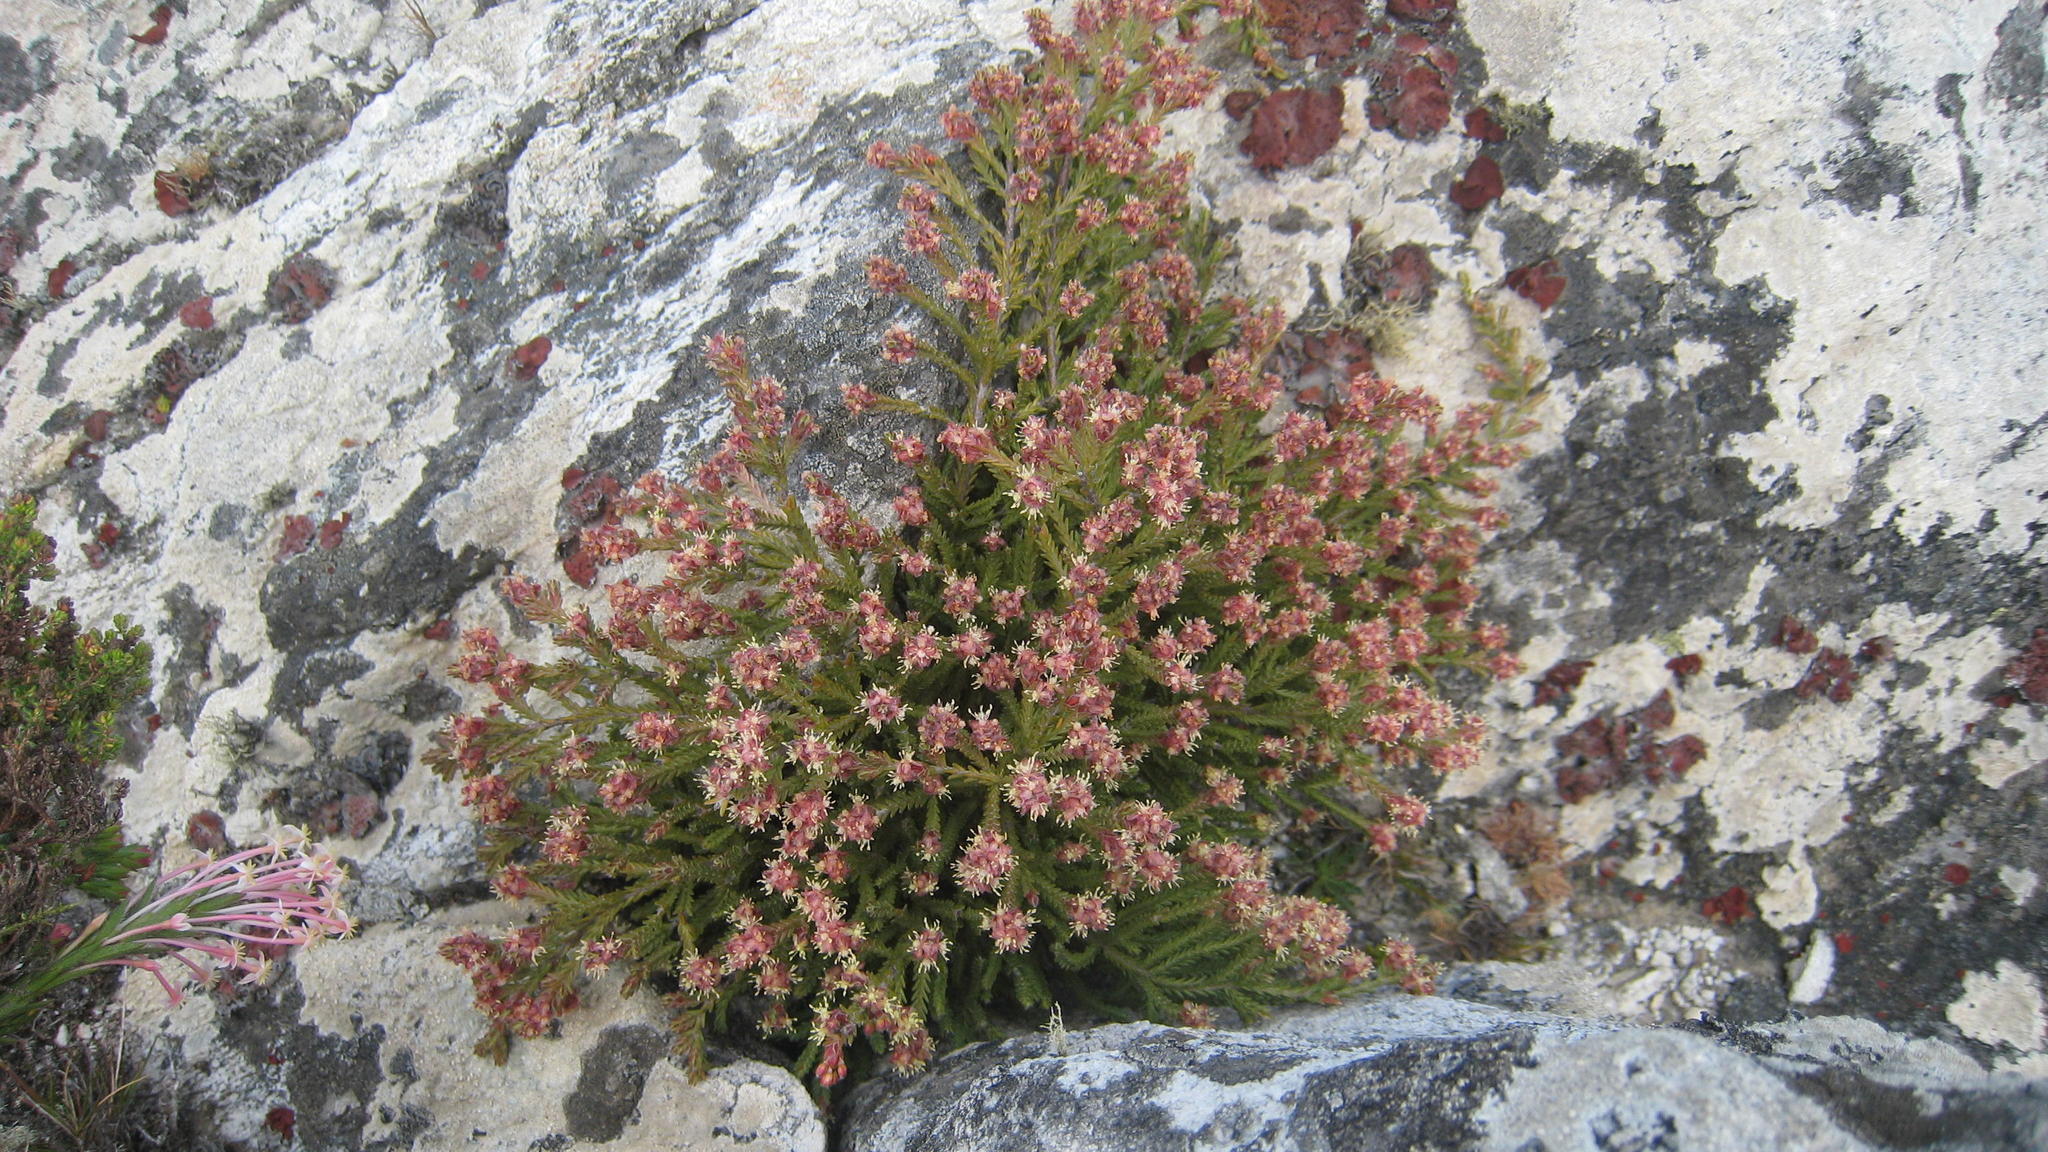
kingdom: Plantae
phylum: Tracheophyta
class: Magnoliopsida
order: Malvales
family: Thymelaeaceae
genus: Passerina
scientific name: Passerina quadrifaria
